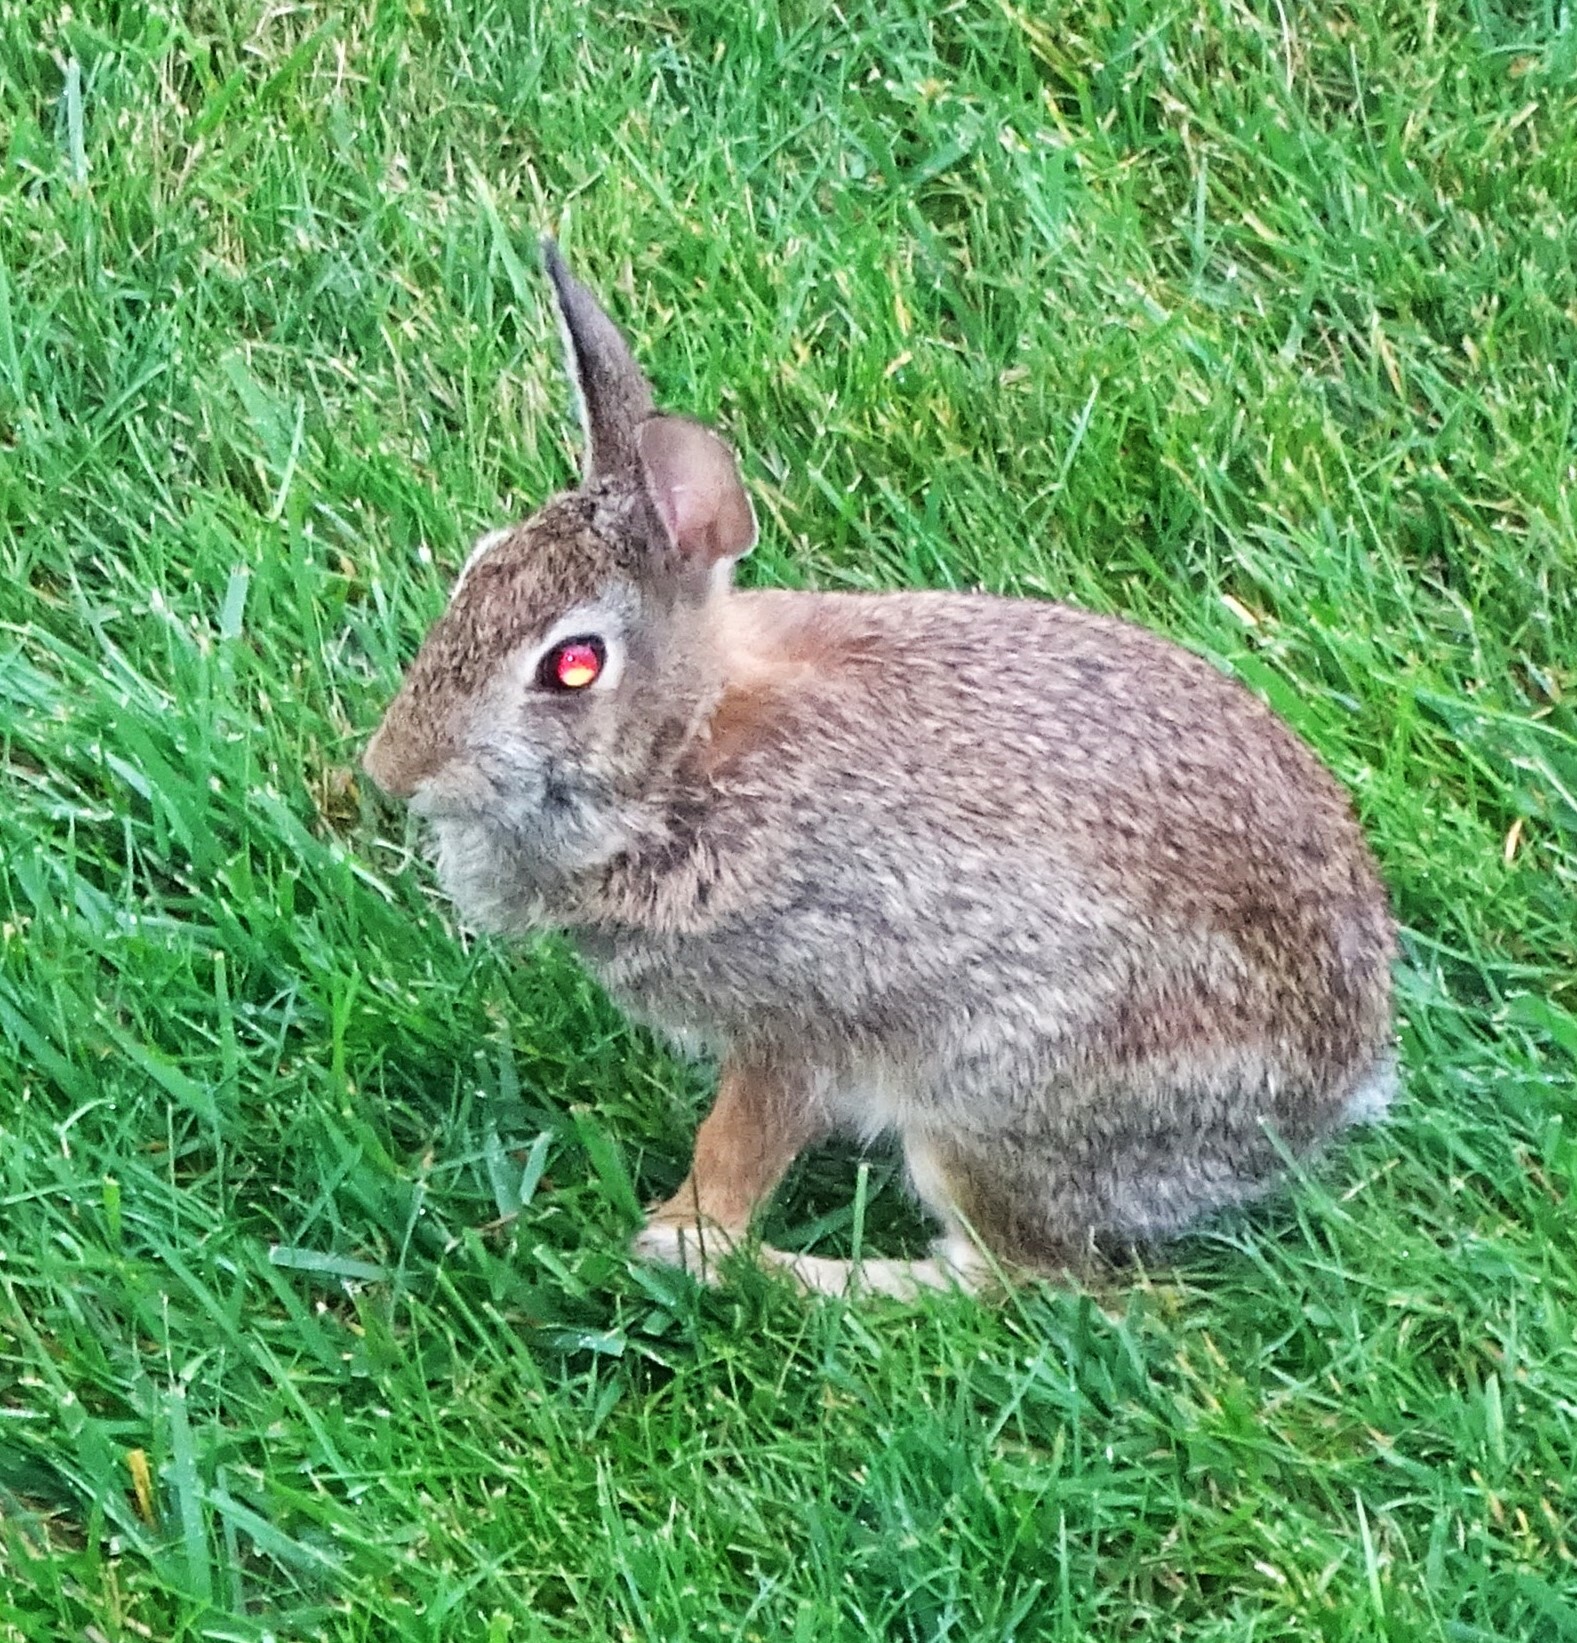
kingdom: Animalia
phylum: Chordata
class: Mammalia
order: Lagomorpha
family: Leporidae
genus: Sylvilagus
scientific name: Sylvilagus floridanus
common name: Eastern cottontail
